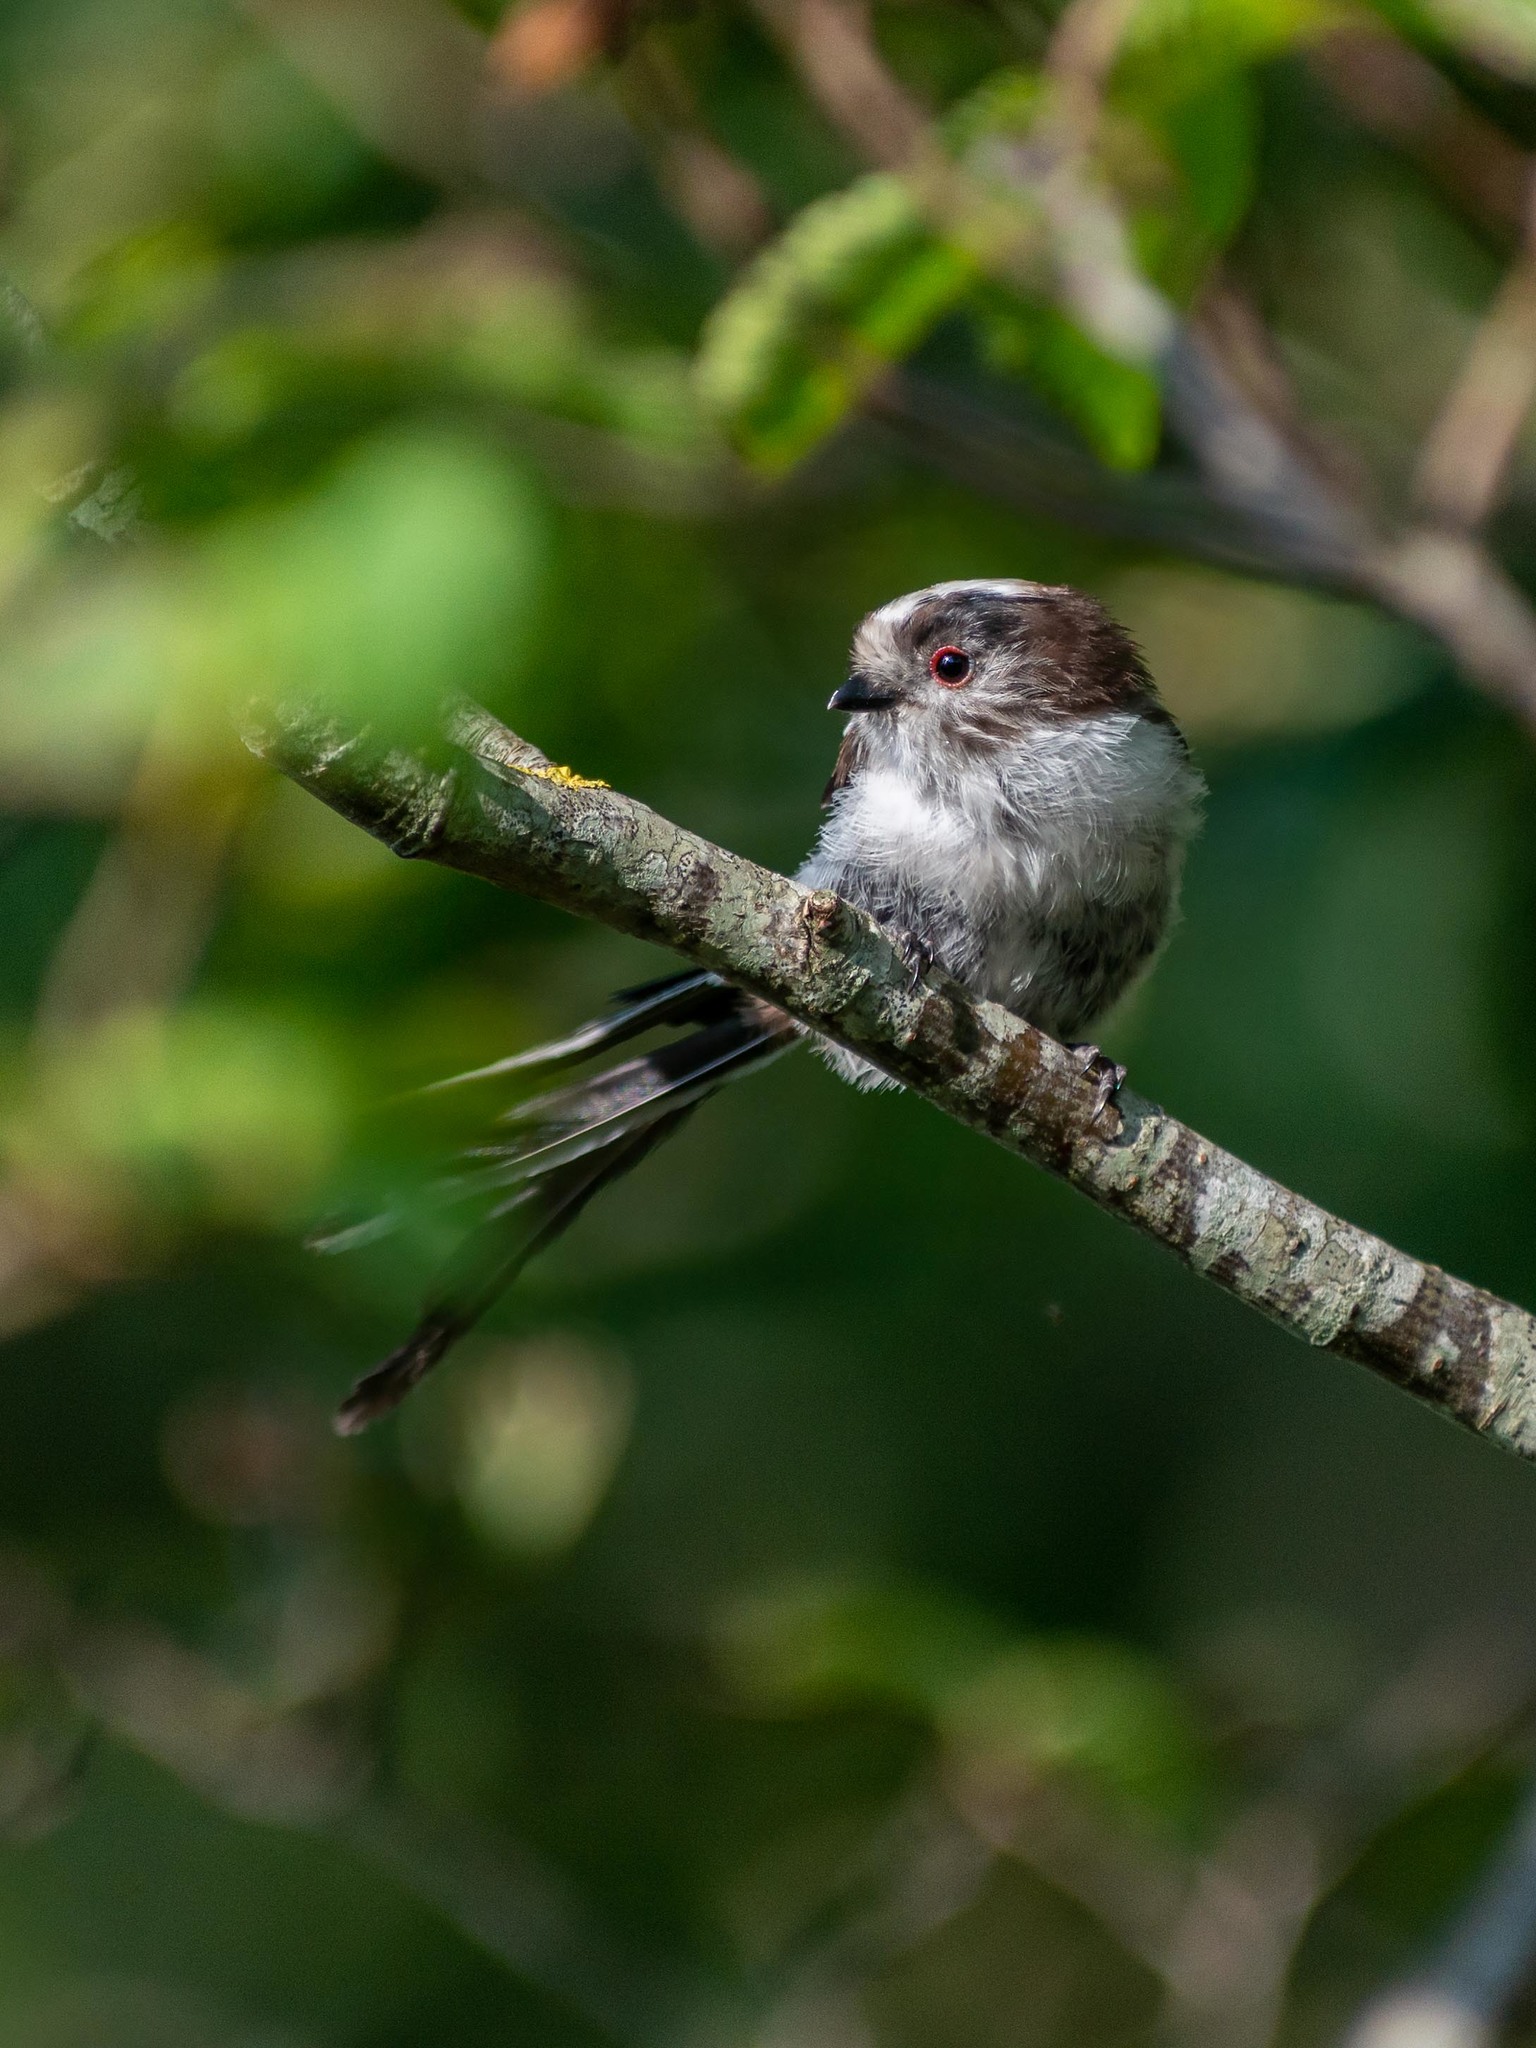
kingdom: Animalia
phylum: Chordata
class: Aves
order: Passeriformes
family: Aegithalidae
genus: Aegithalos
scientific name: Aegithalos caudatus
